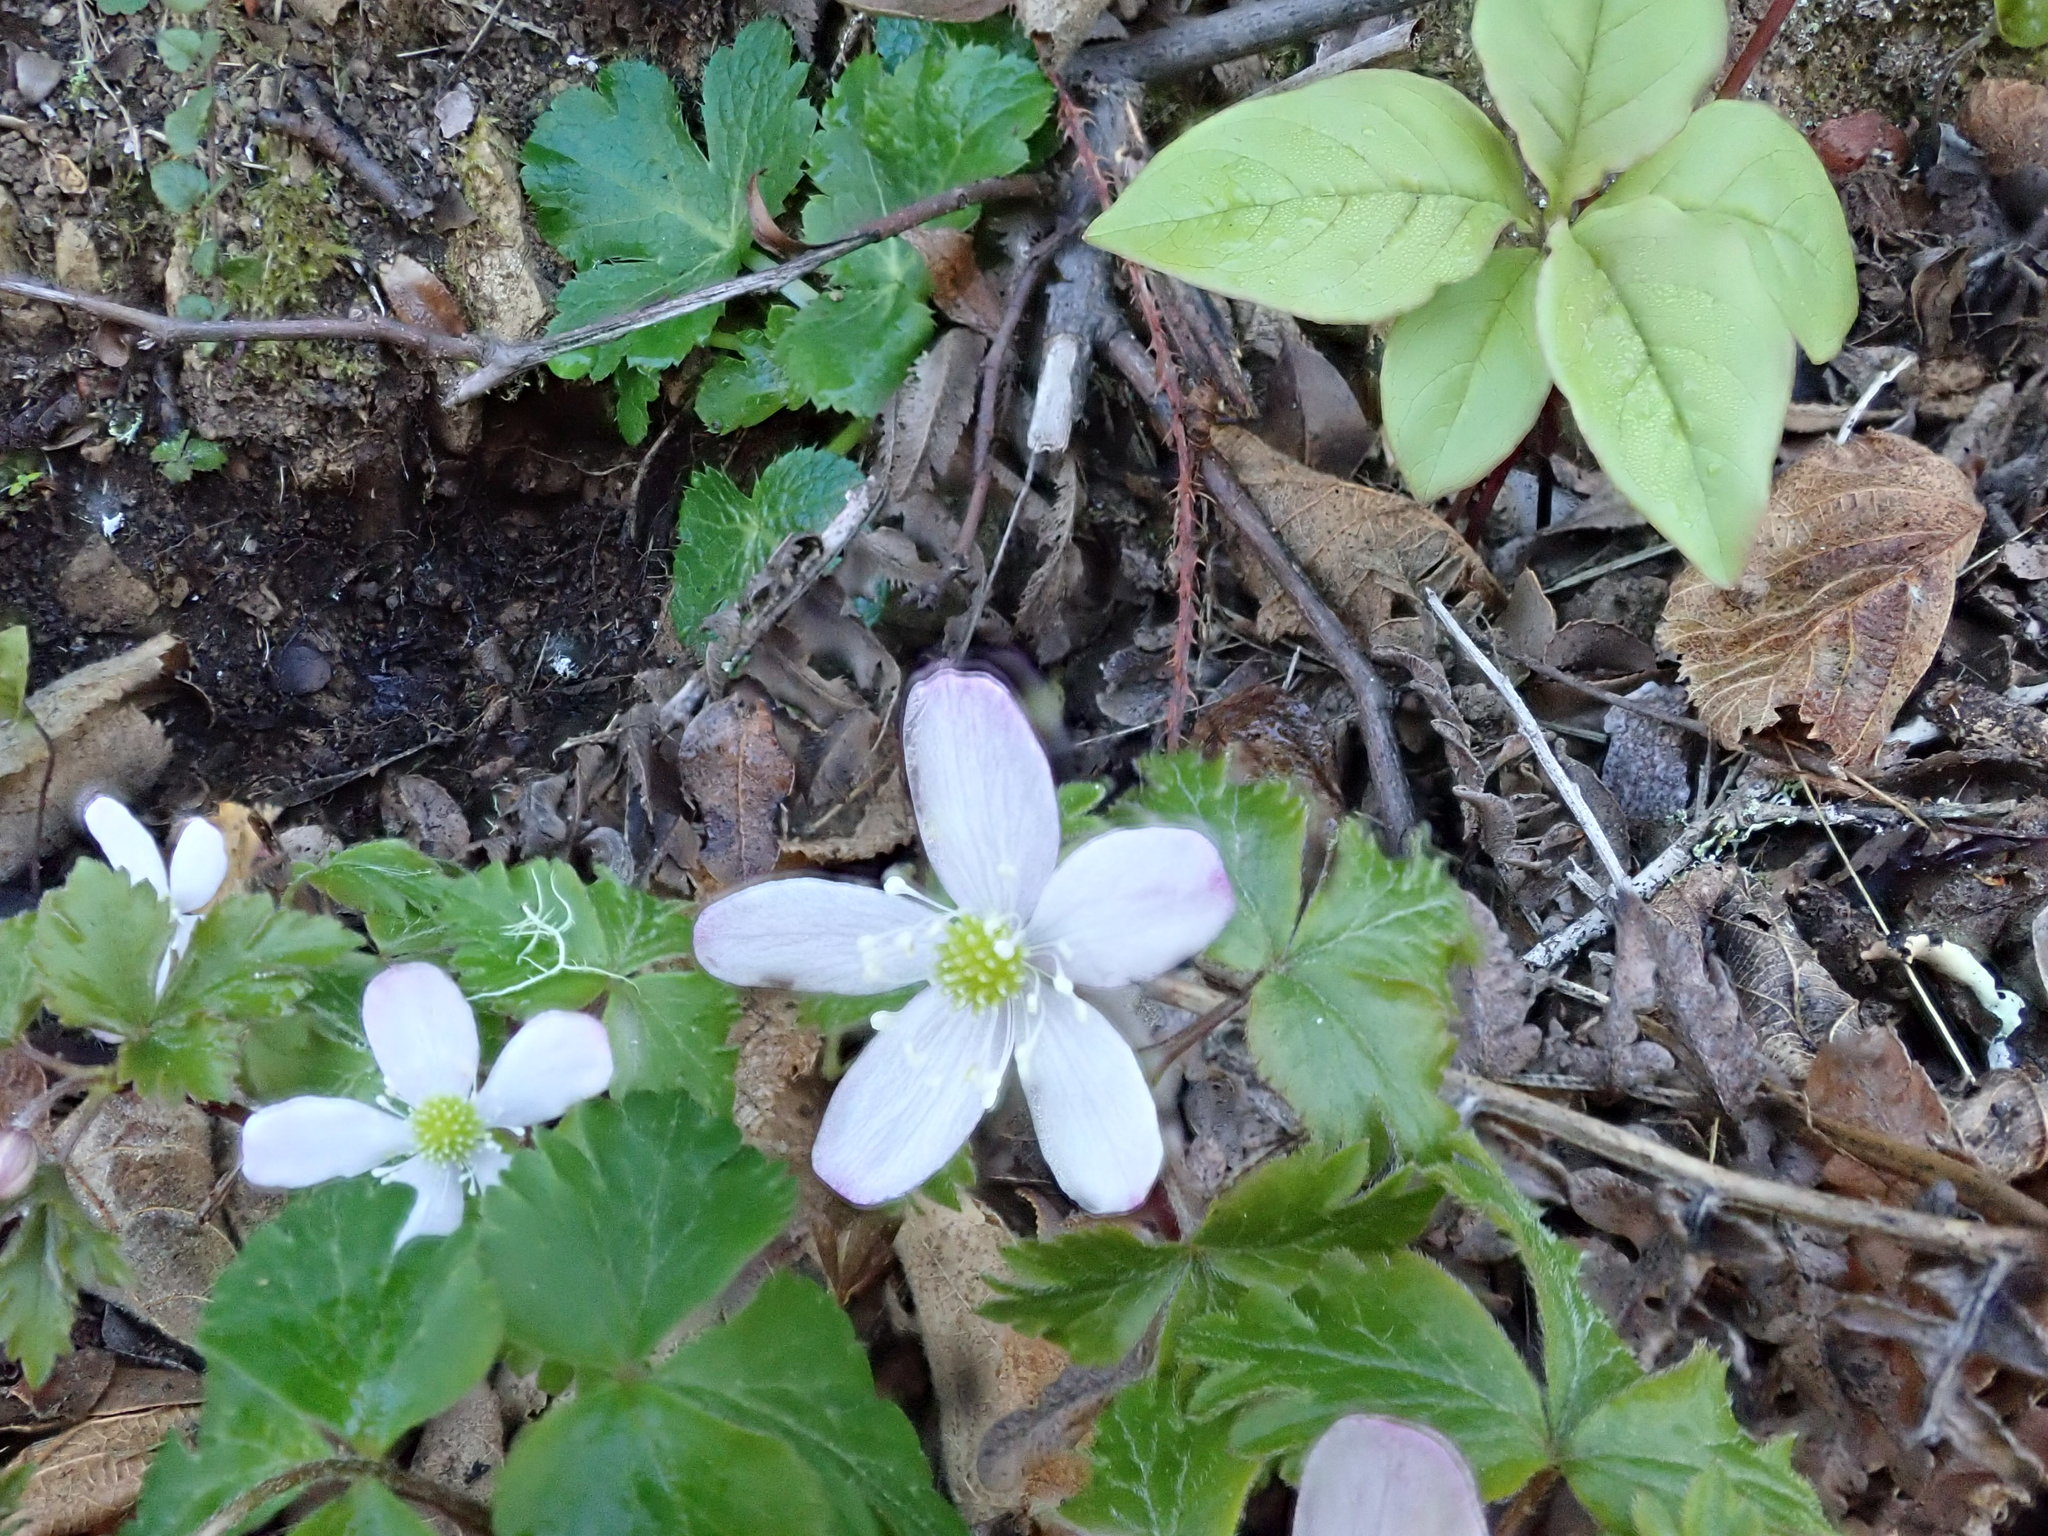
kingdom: Plantae
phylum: Tracheophyta
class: Magnoliopsida
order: Ranunculales
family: Ranunculaceae
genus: Anemone
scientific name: Anemone
